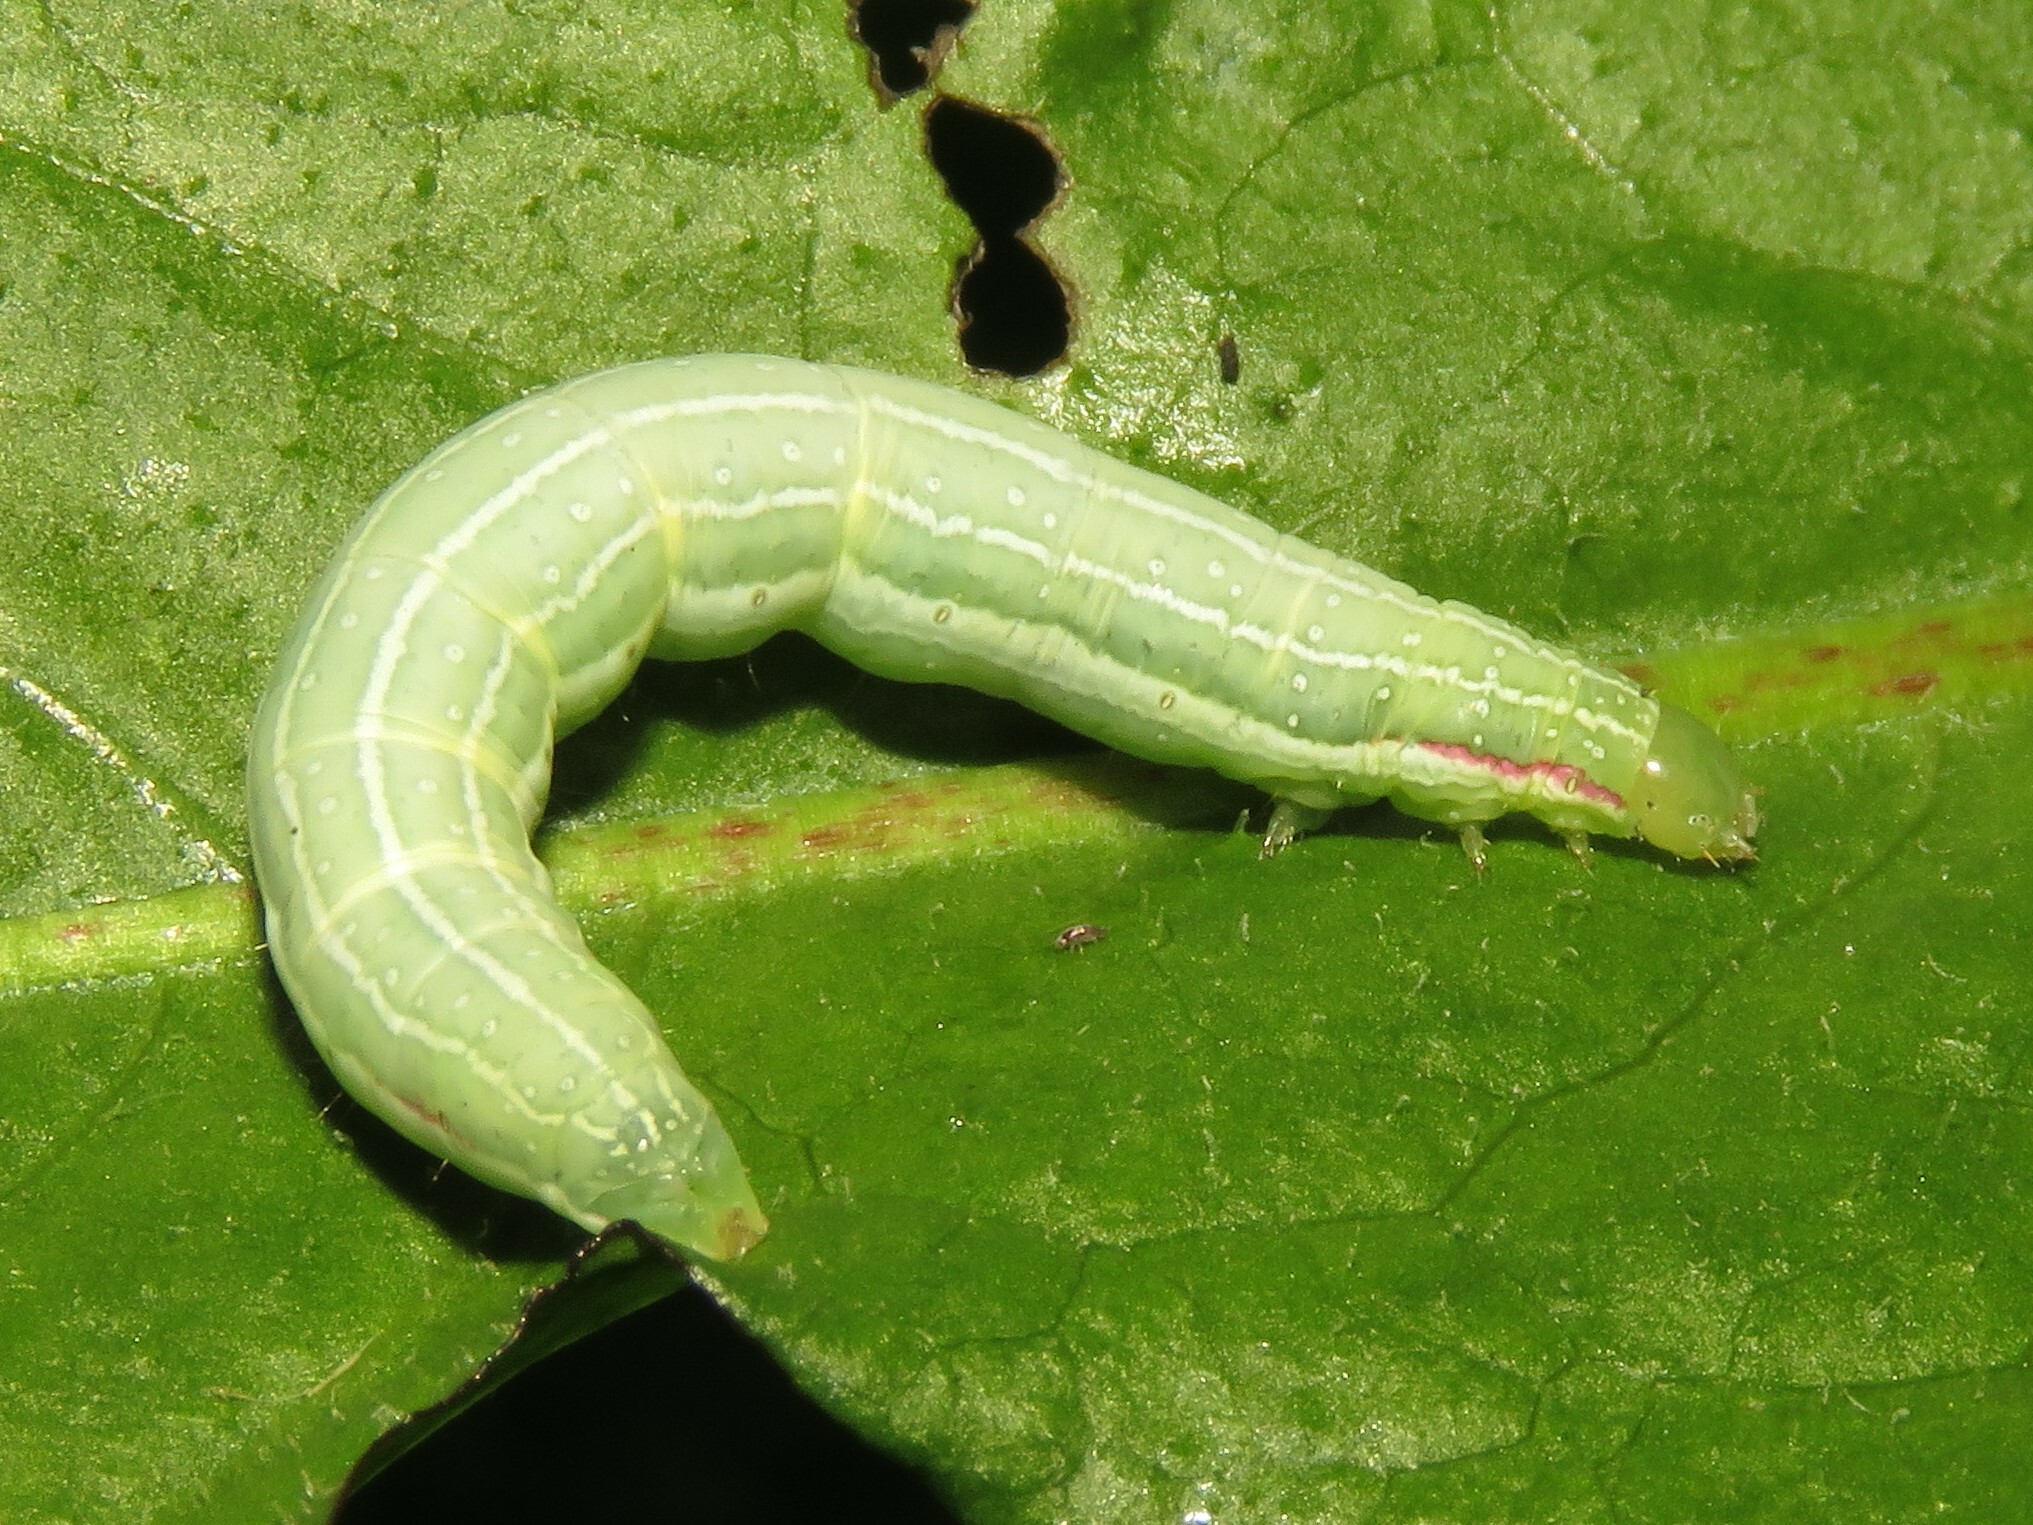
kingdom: Animalia
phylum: Arthropoda
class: Insecta
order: Lepidoptera
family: Noctuidae
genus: Leuconycta
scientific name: Leuconycta diphteroides
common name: Green leuconycta moth
